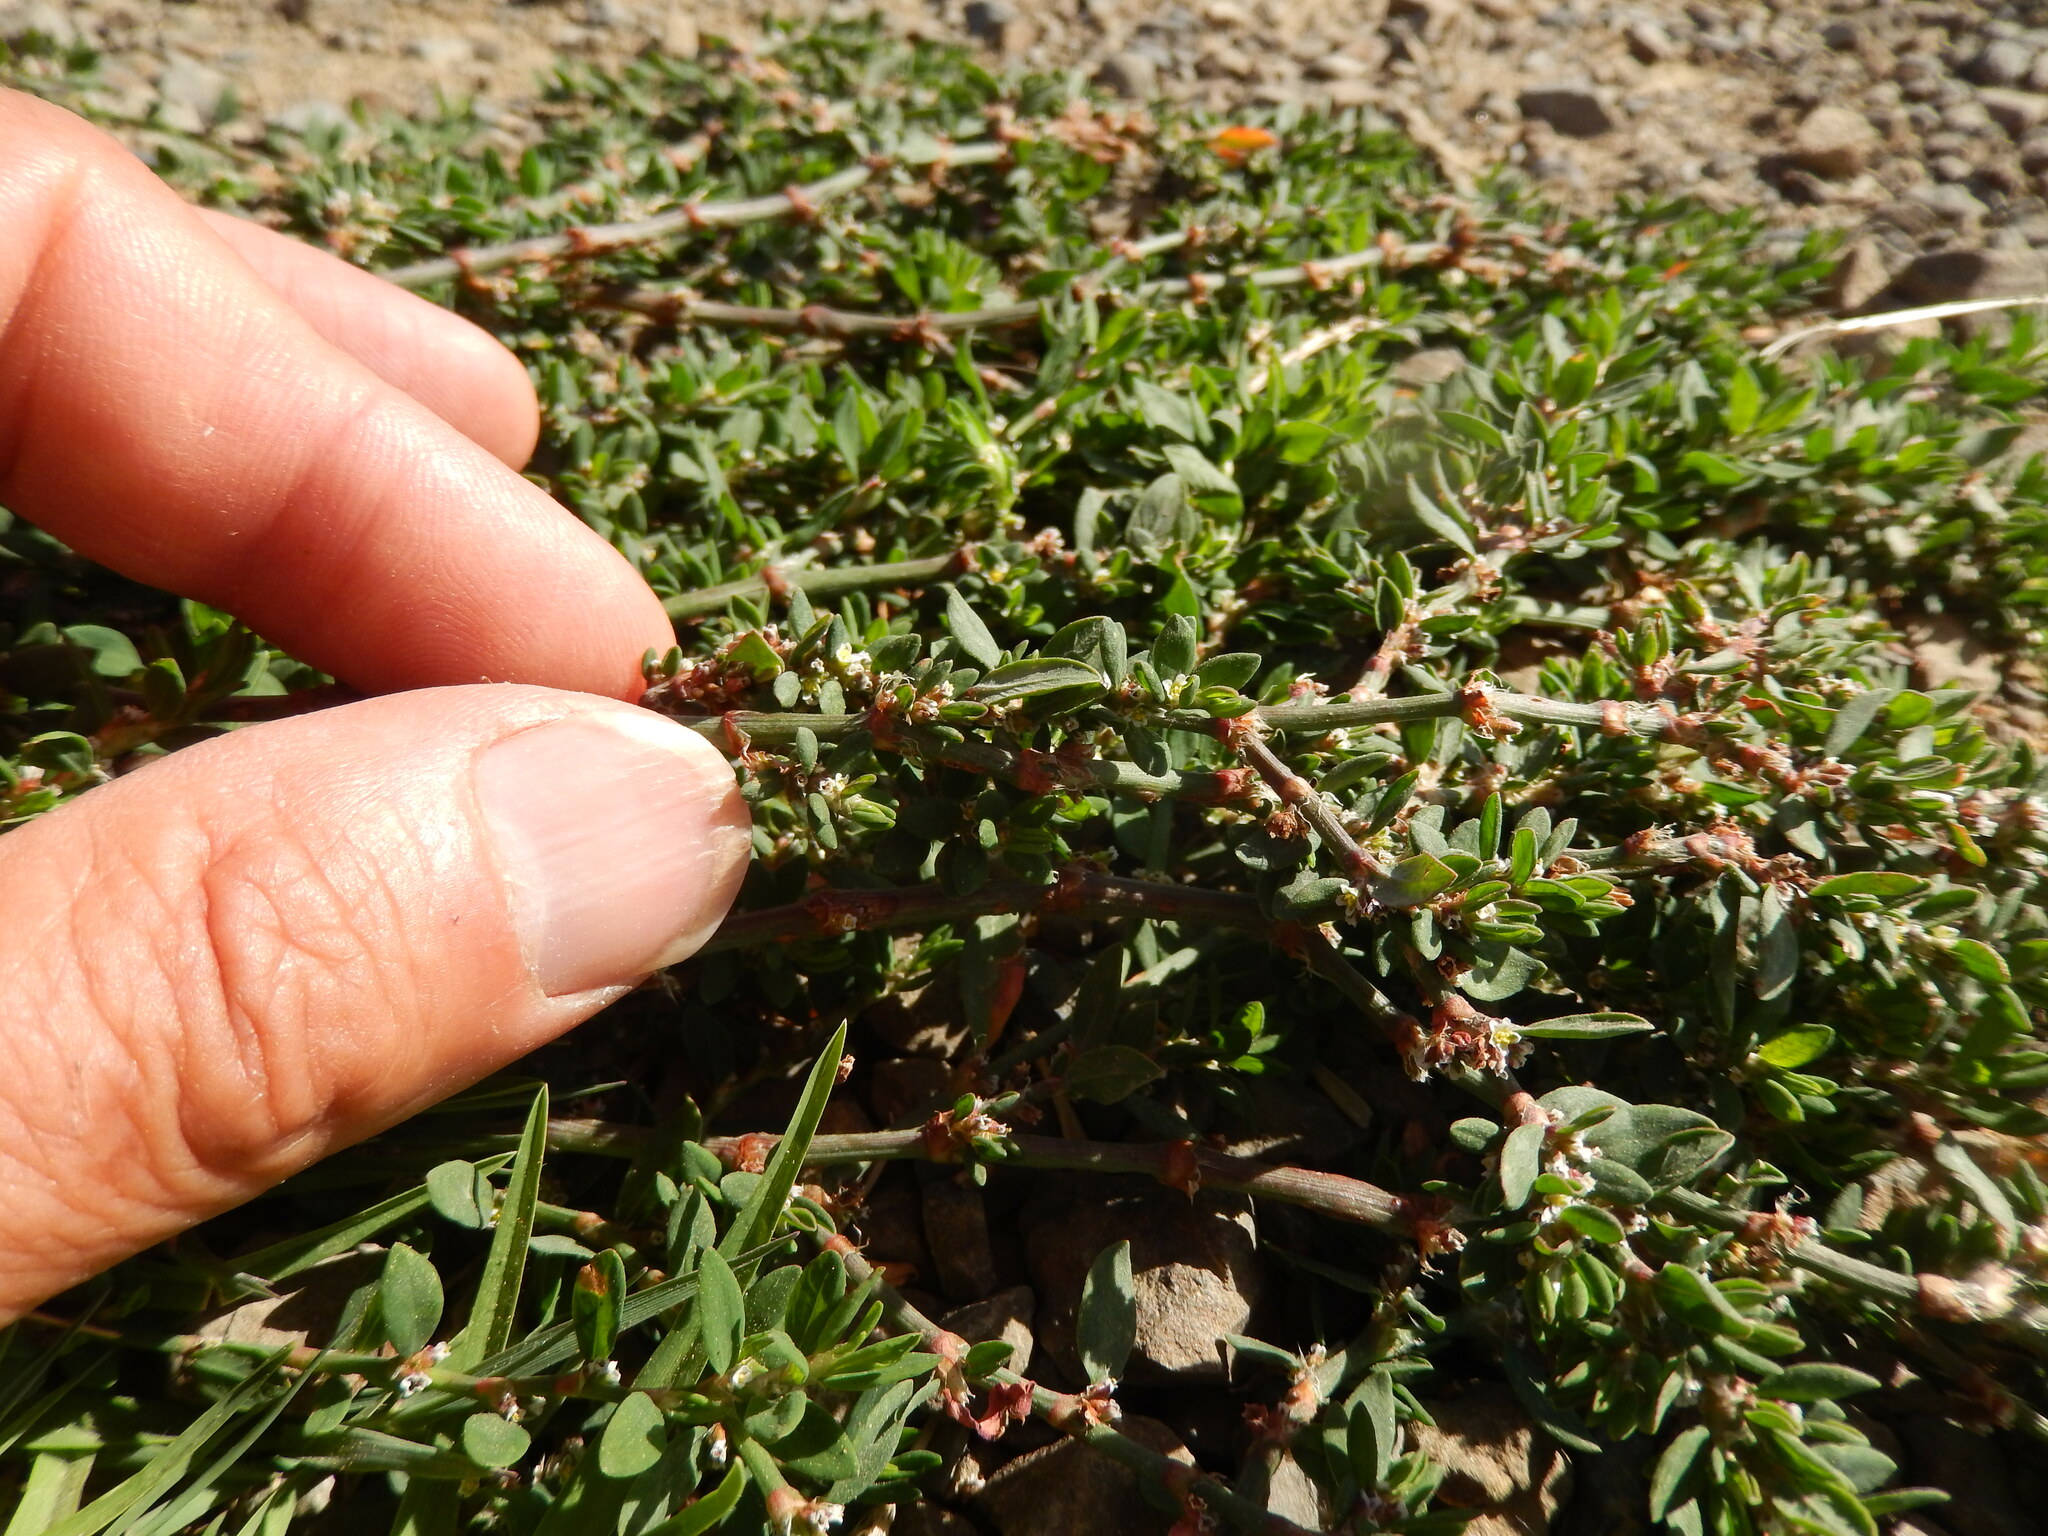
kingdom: Plantae
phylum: Tracheophyta
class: Magnoliopsida
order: Caryophyllales
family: Polygonaceae
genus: Polygonum
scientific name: Polygonum arenastrum
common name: Equal-leaved knotgrass
